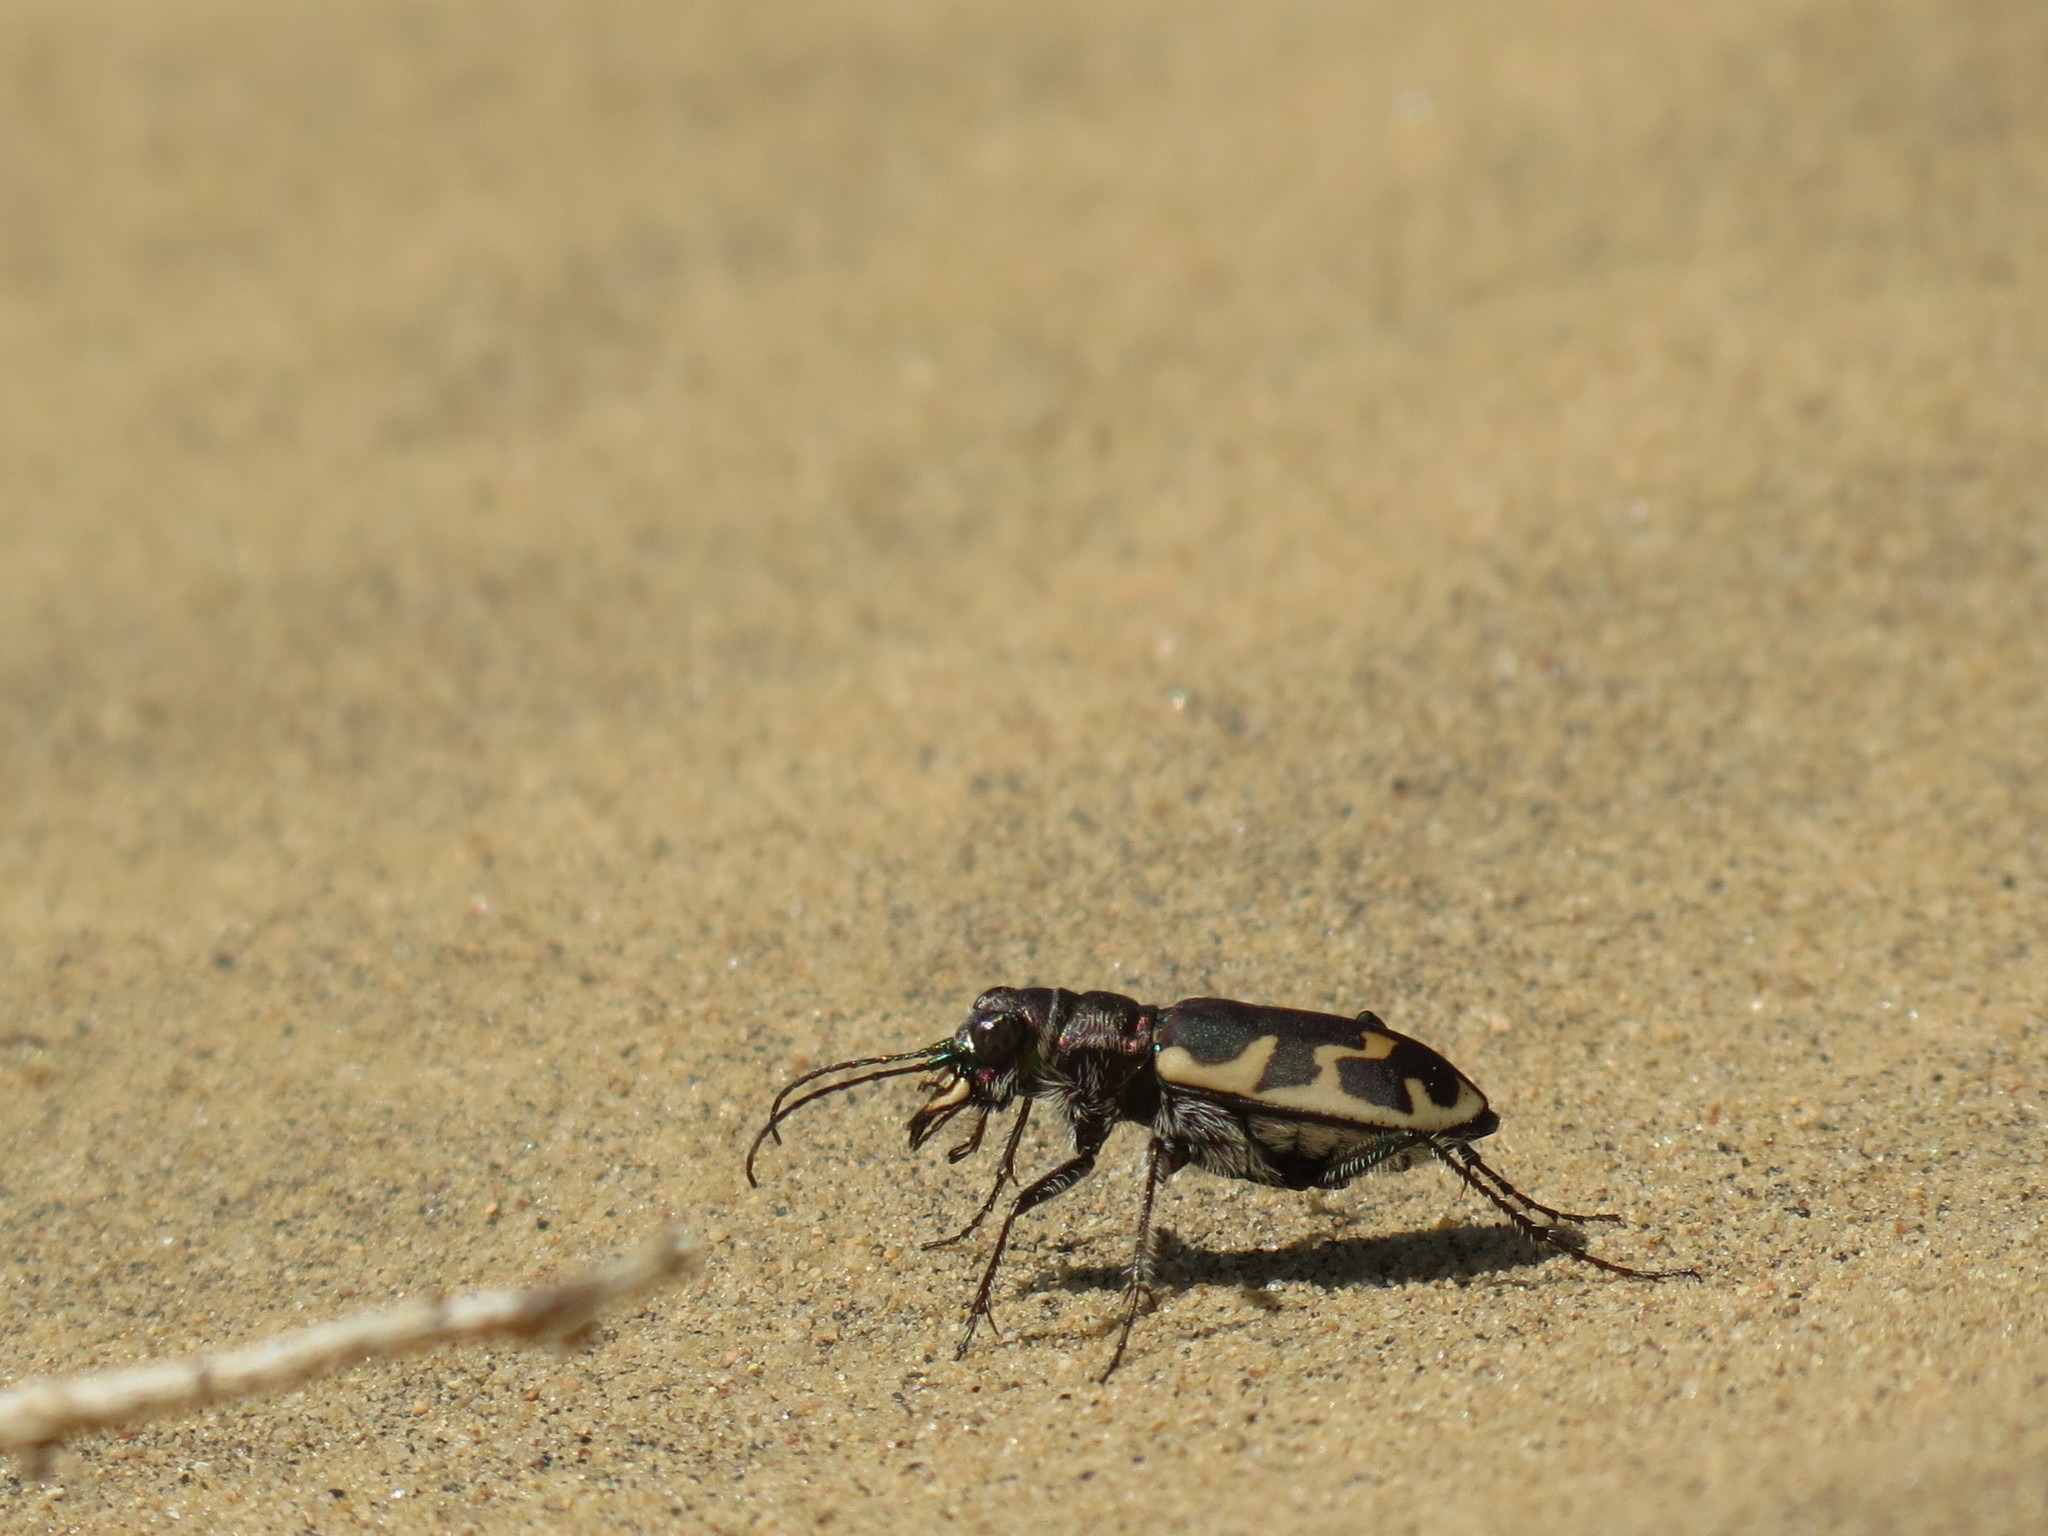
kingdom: Animalia
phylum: Arthropoda
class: Insecta
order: Coleoptera
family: Carabidae
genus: Cicindela
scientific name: Cicindela formosa
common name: Big sand tiger beetle
